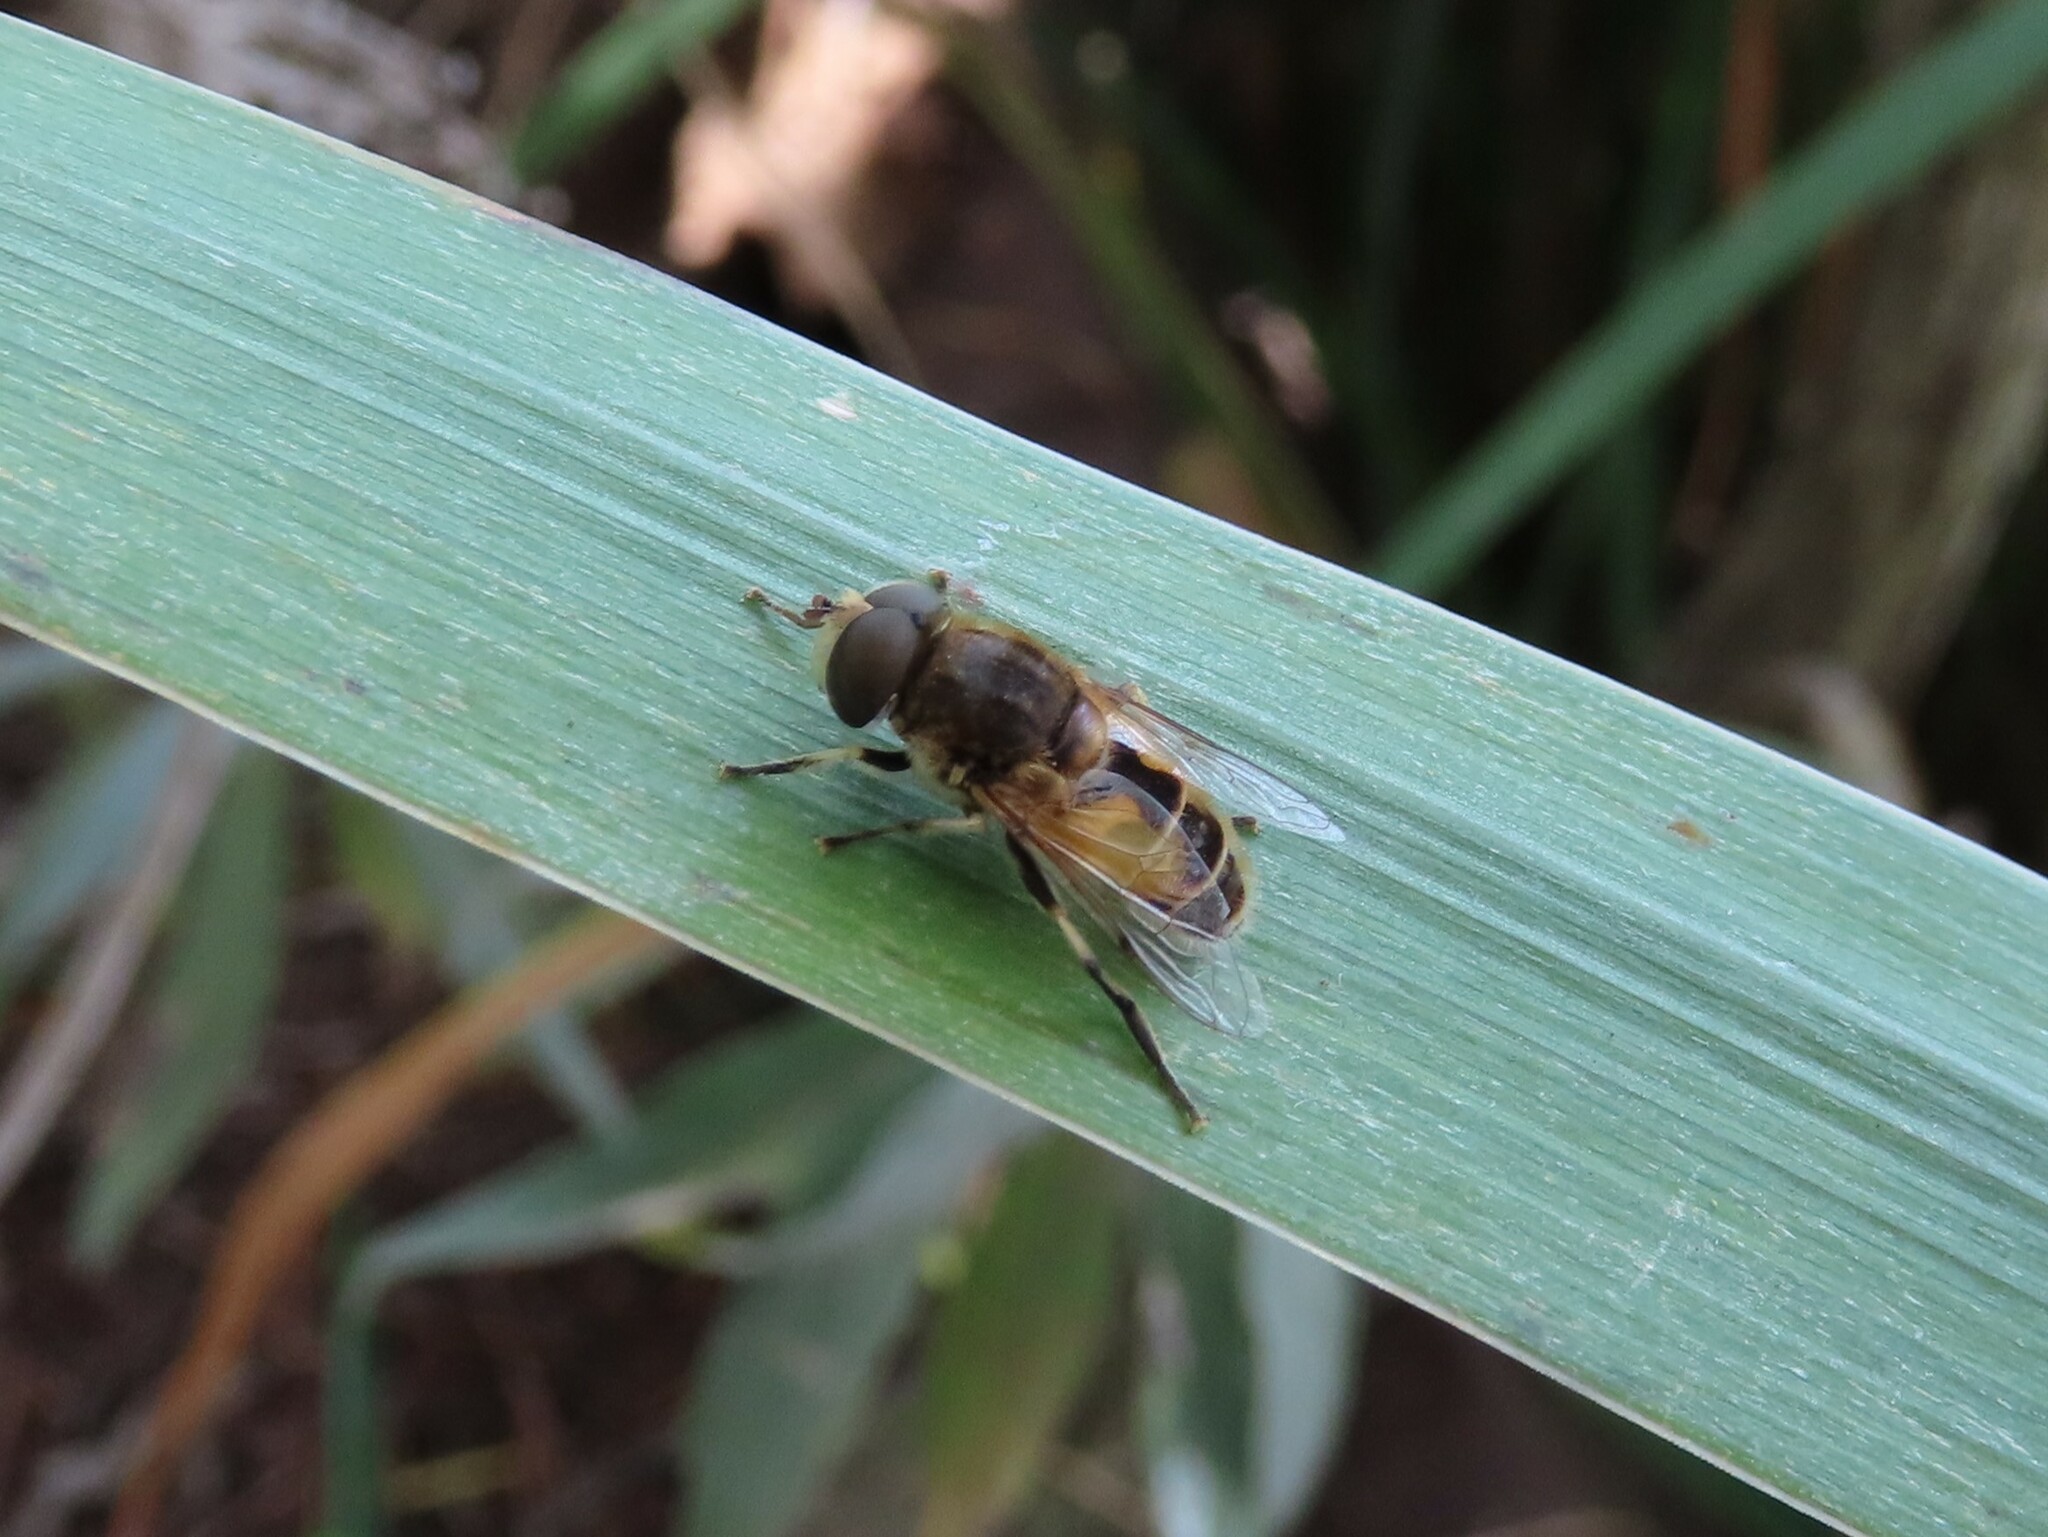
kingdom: Animalia
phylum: Arthropoda
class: Insecta
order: Diptera
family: Syrphidae
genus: Eristalis
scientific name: Eristalis arbustorum
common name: Hover fly
